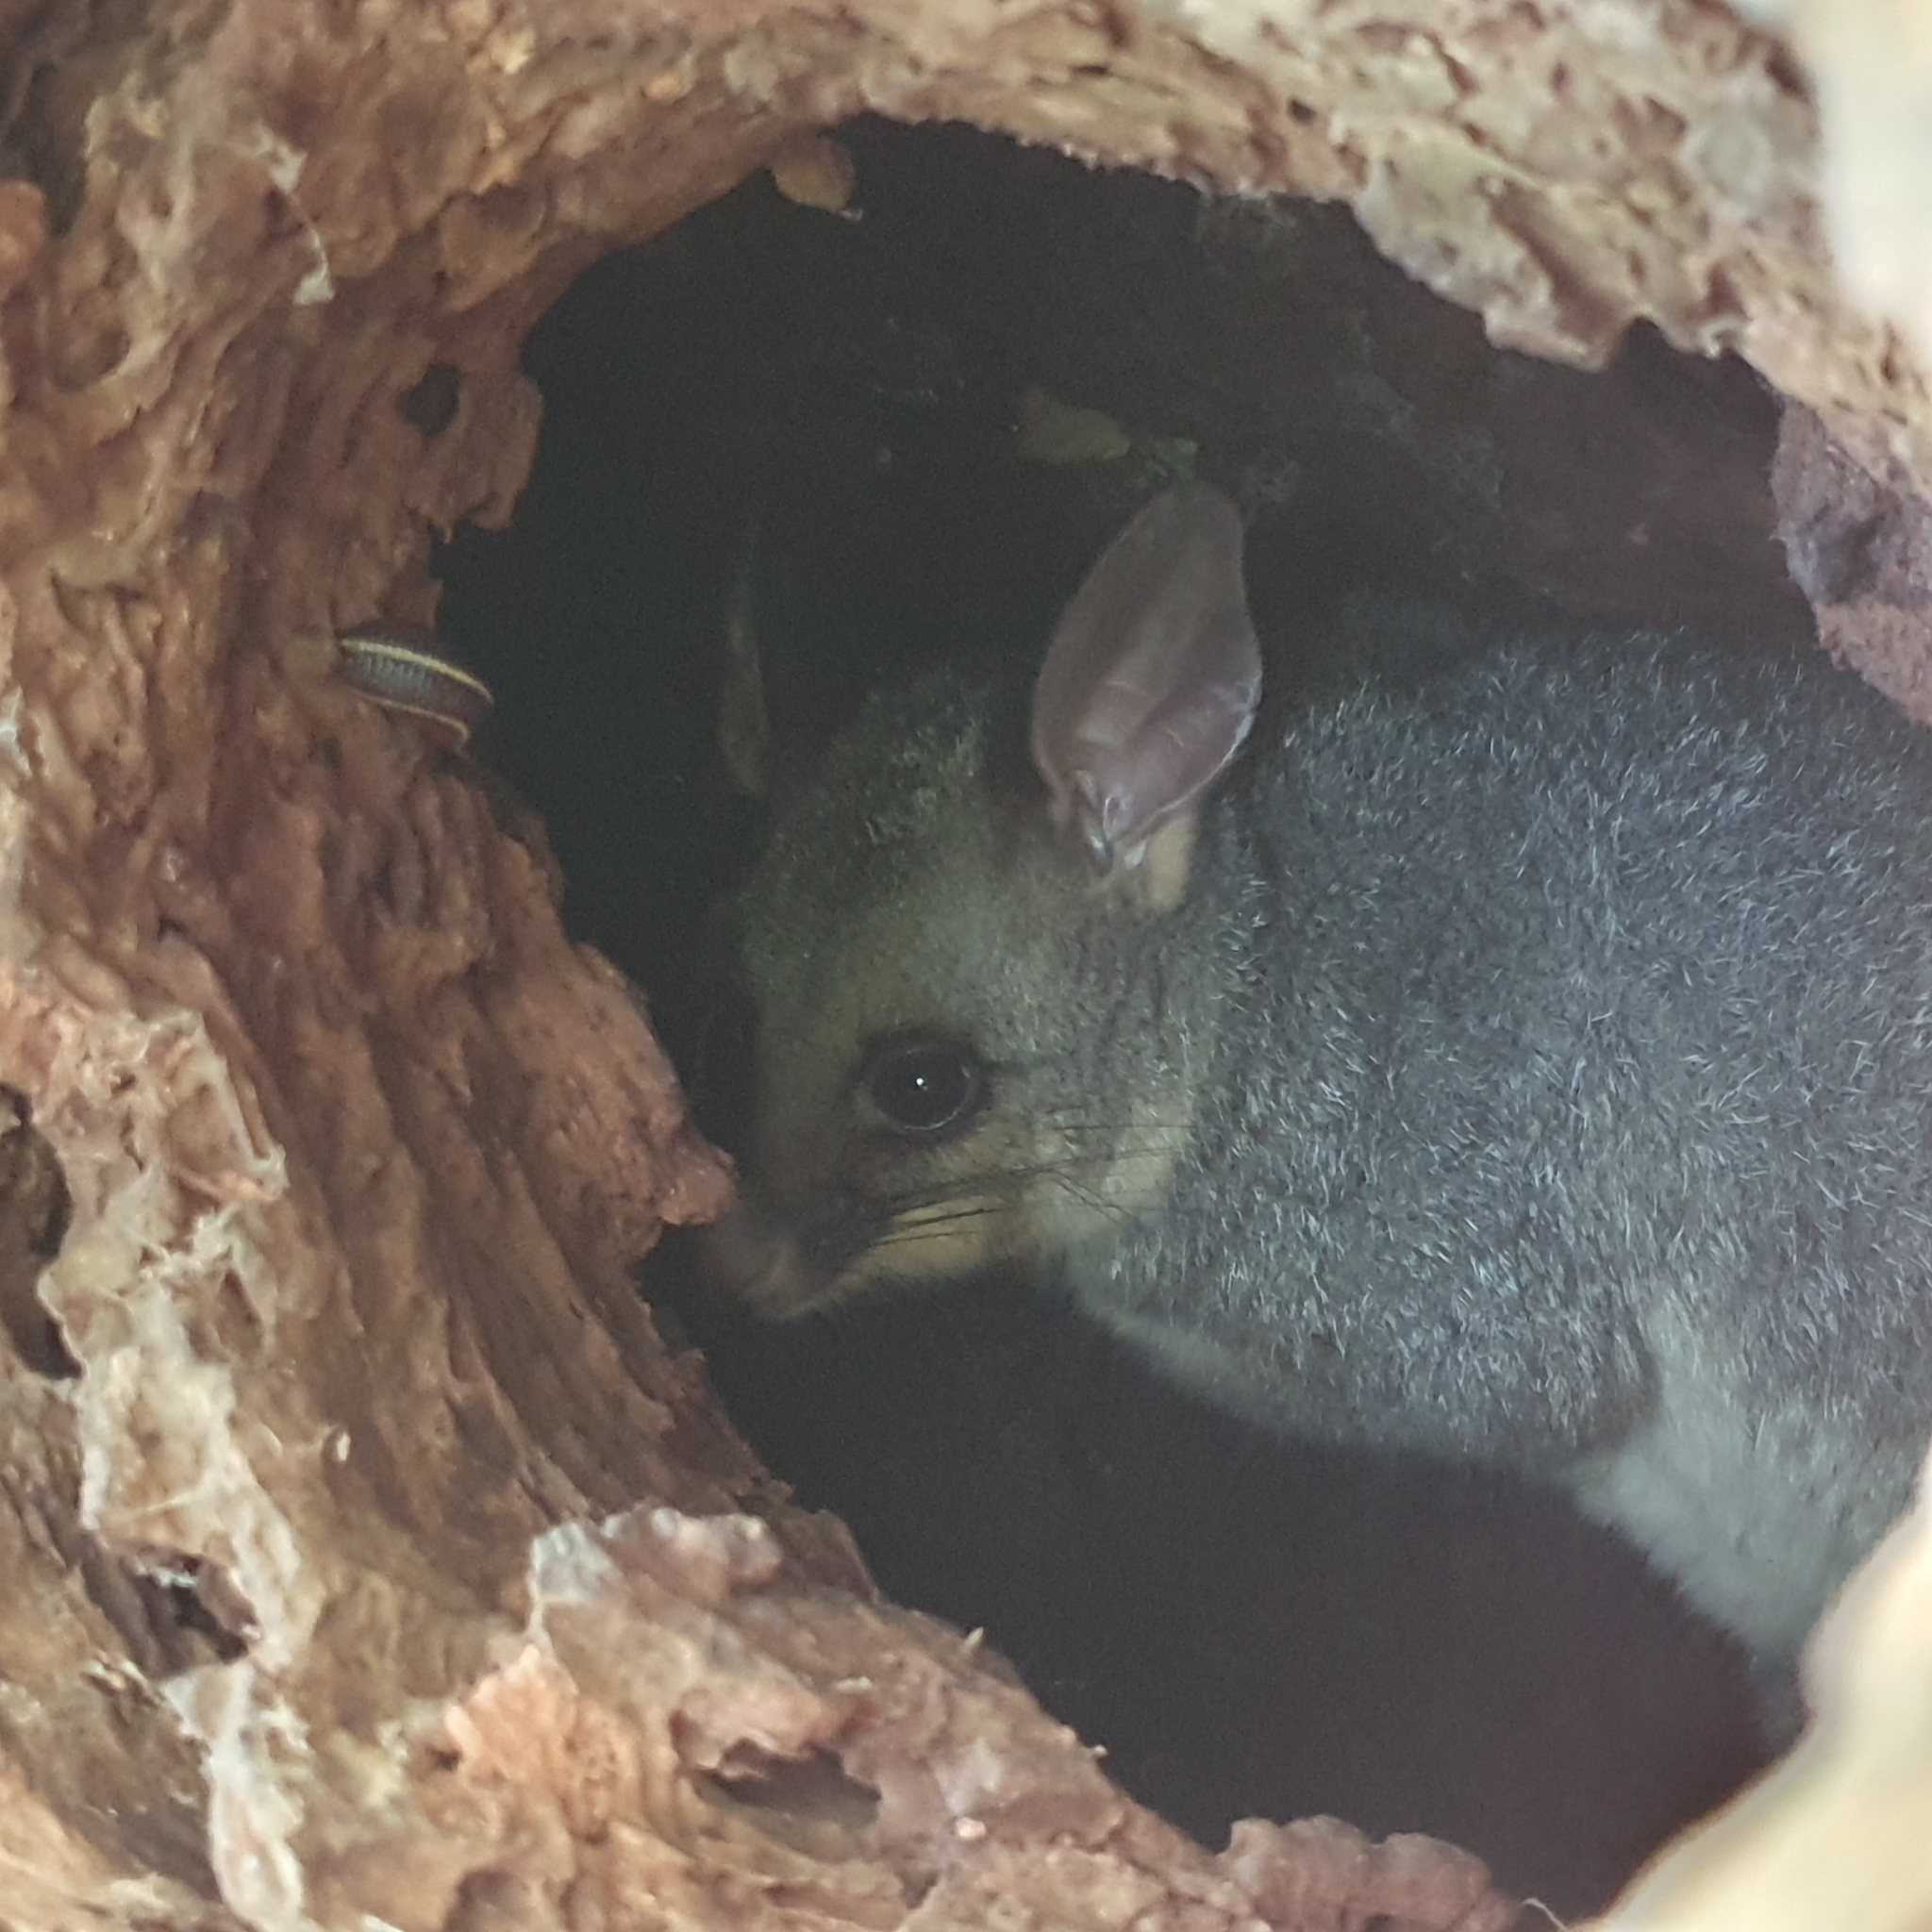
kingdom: Animalia
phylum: Chordata
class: Mammalia
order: Diprotodontia
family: Phalangeridae
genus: Trichosurus
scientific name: Trichosurus vulpecula
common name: Common brushtail
